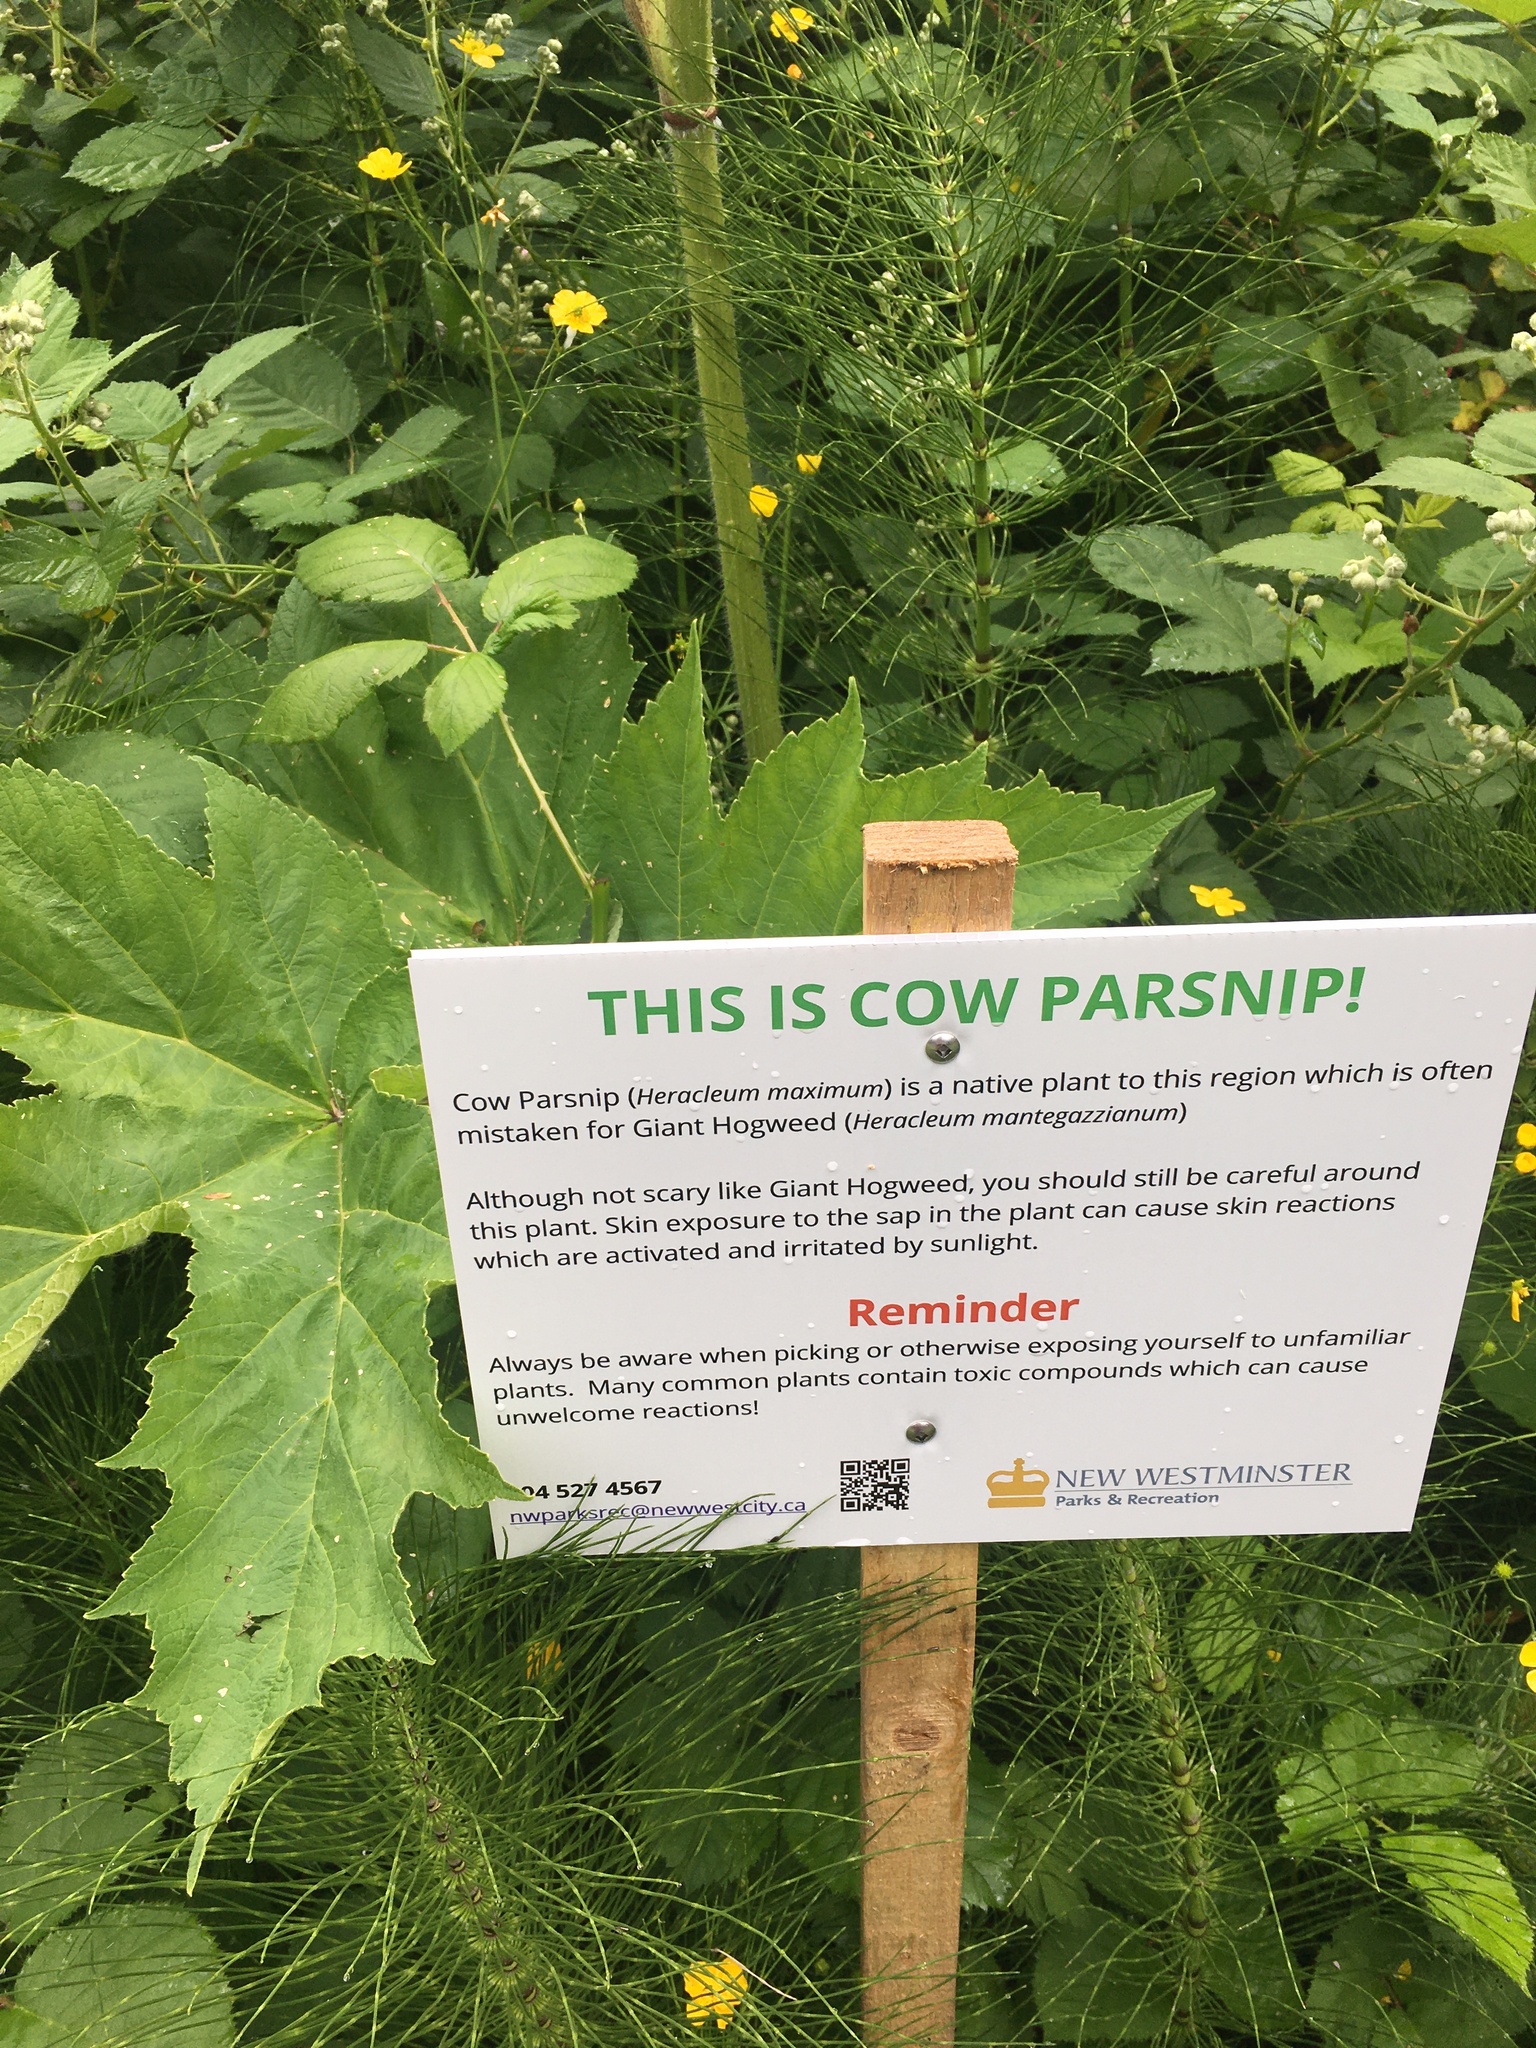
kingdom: Plantae
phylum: Tracheophyta
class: Magnoliopsida
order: Apiales
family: Apiaceae
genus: Heracleum
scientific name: Heracleum maximum
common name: American cow parsnip
